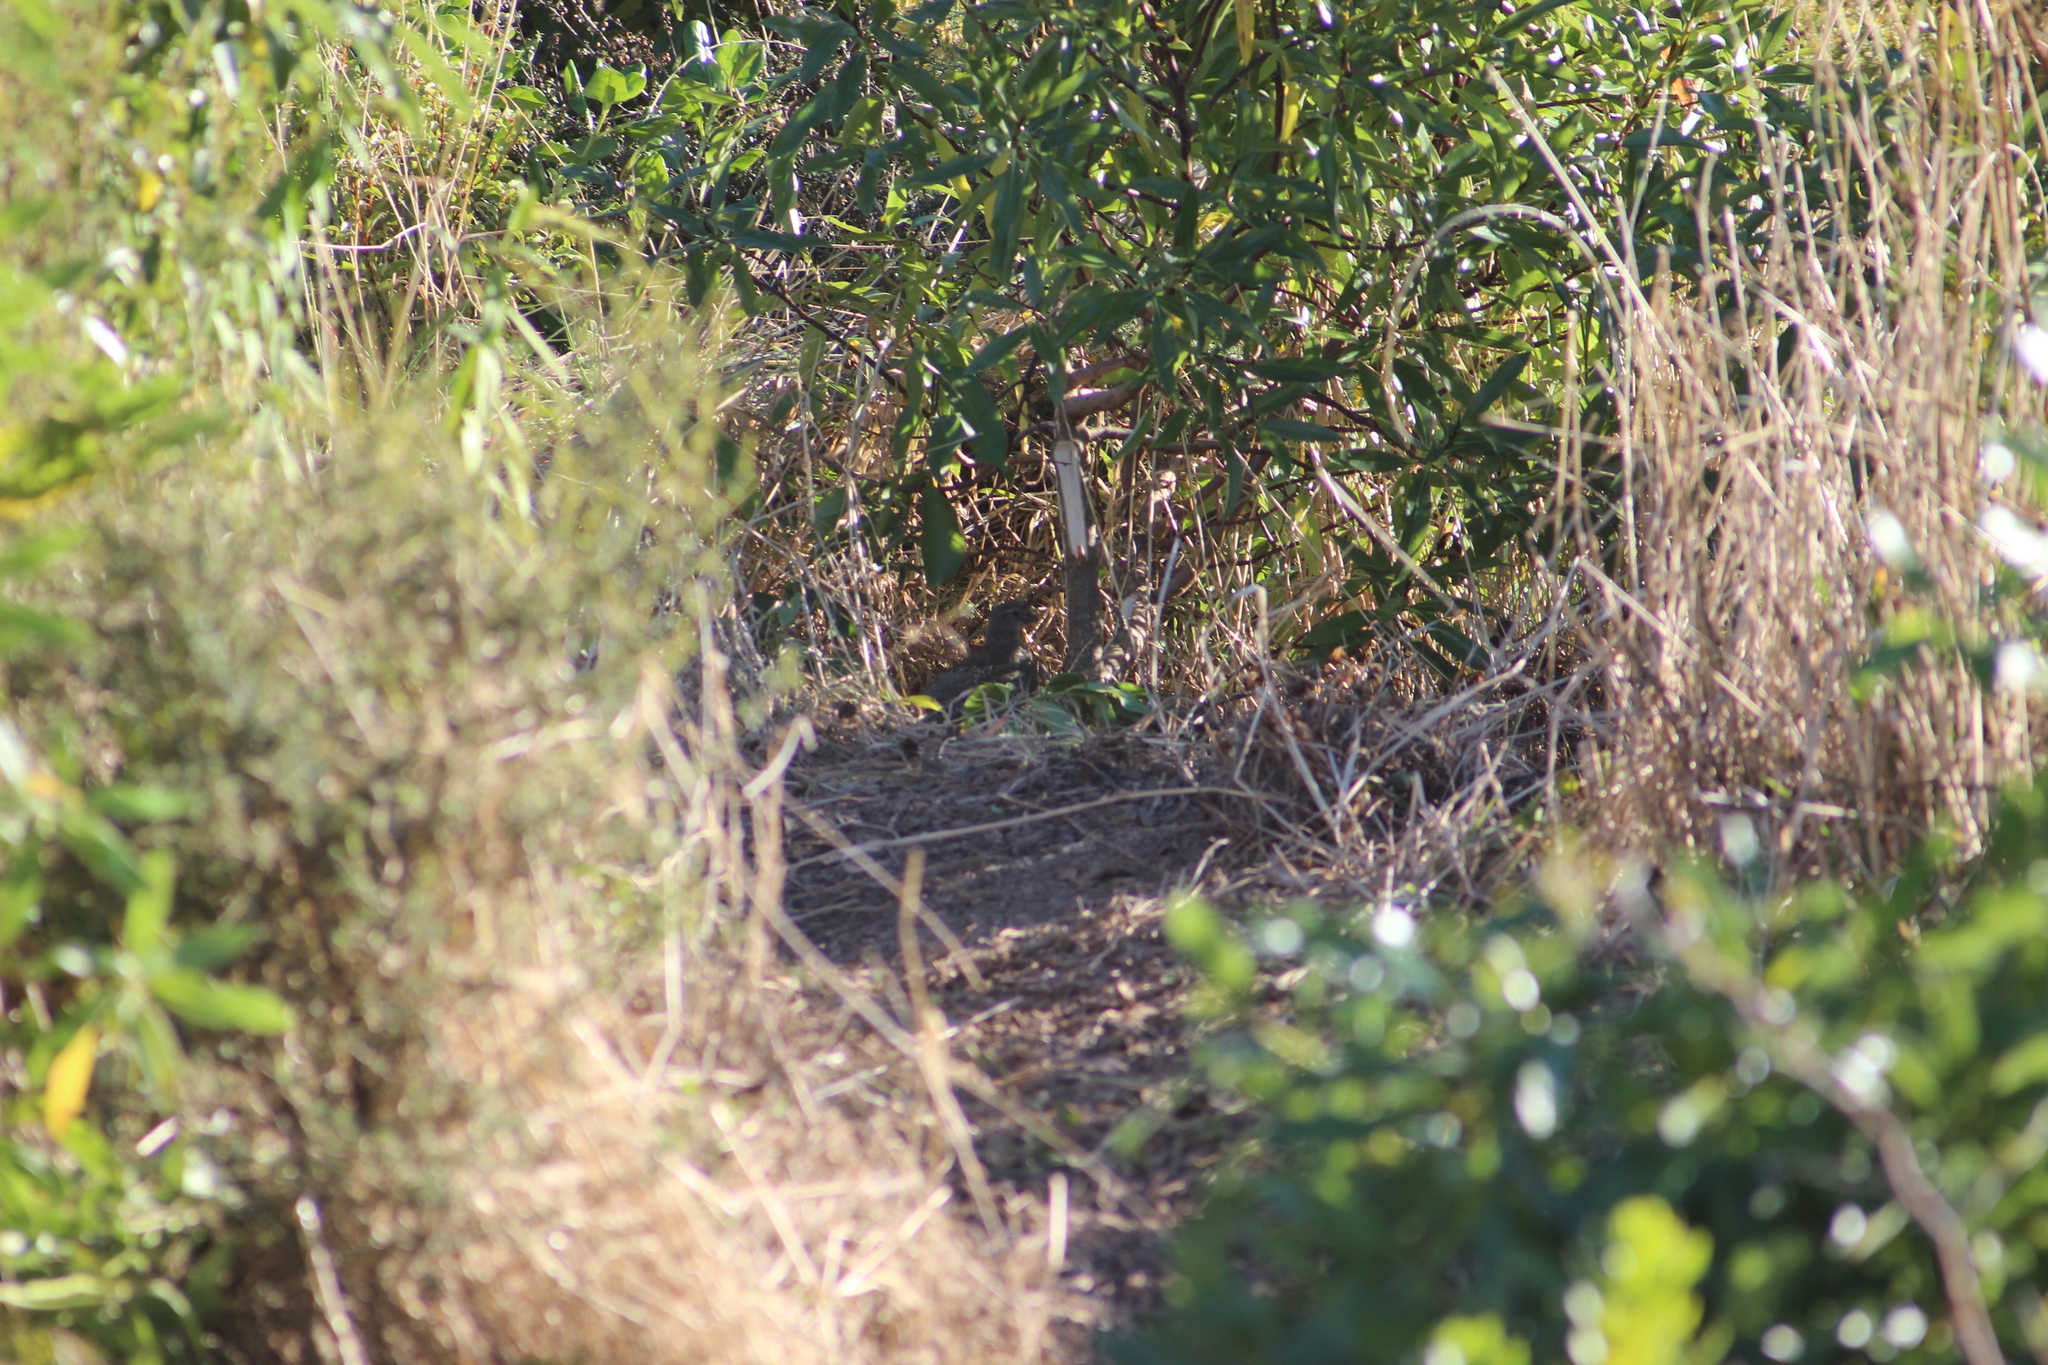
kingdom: Animalia
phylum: Chordata
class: Aves
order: Galliformes
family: Odontophoridae
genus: Callipepla
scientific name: Callipepla californica
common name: California quail
